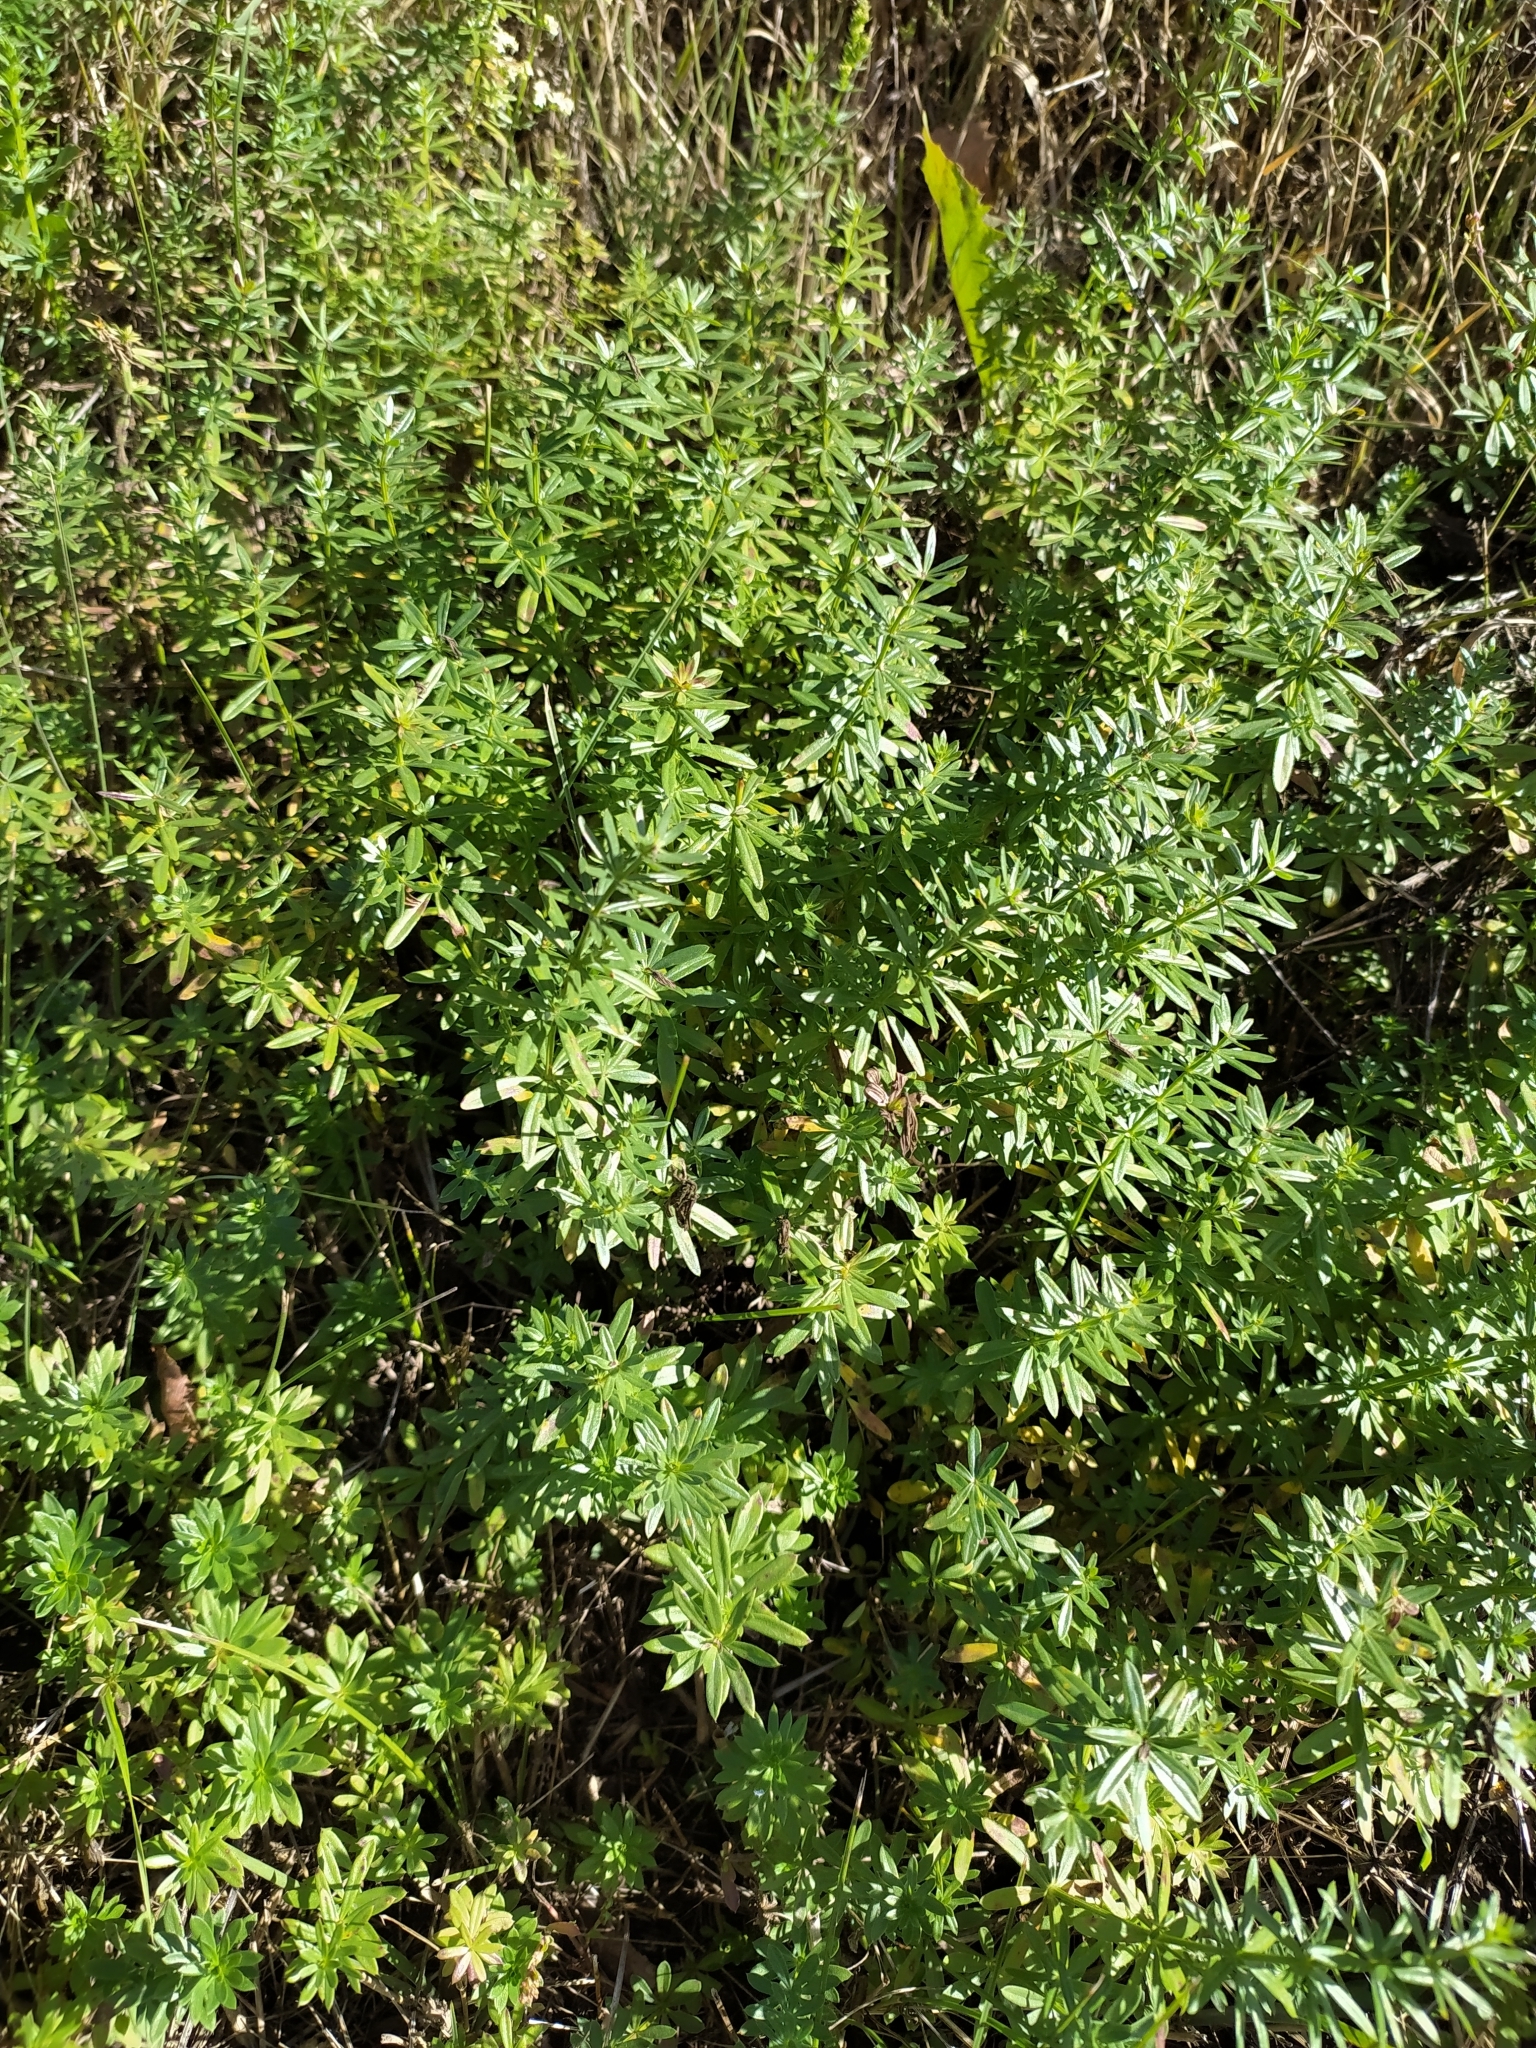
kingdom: Plantae
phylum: Tracheophyta
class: Magnoliopsida
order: Gentianales
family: Rubiaceae
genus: Galium
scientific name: Galium mollugo
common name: Hedge bedstraw
